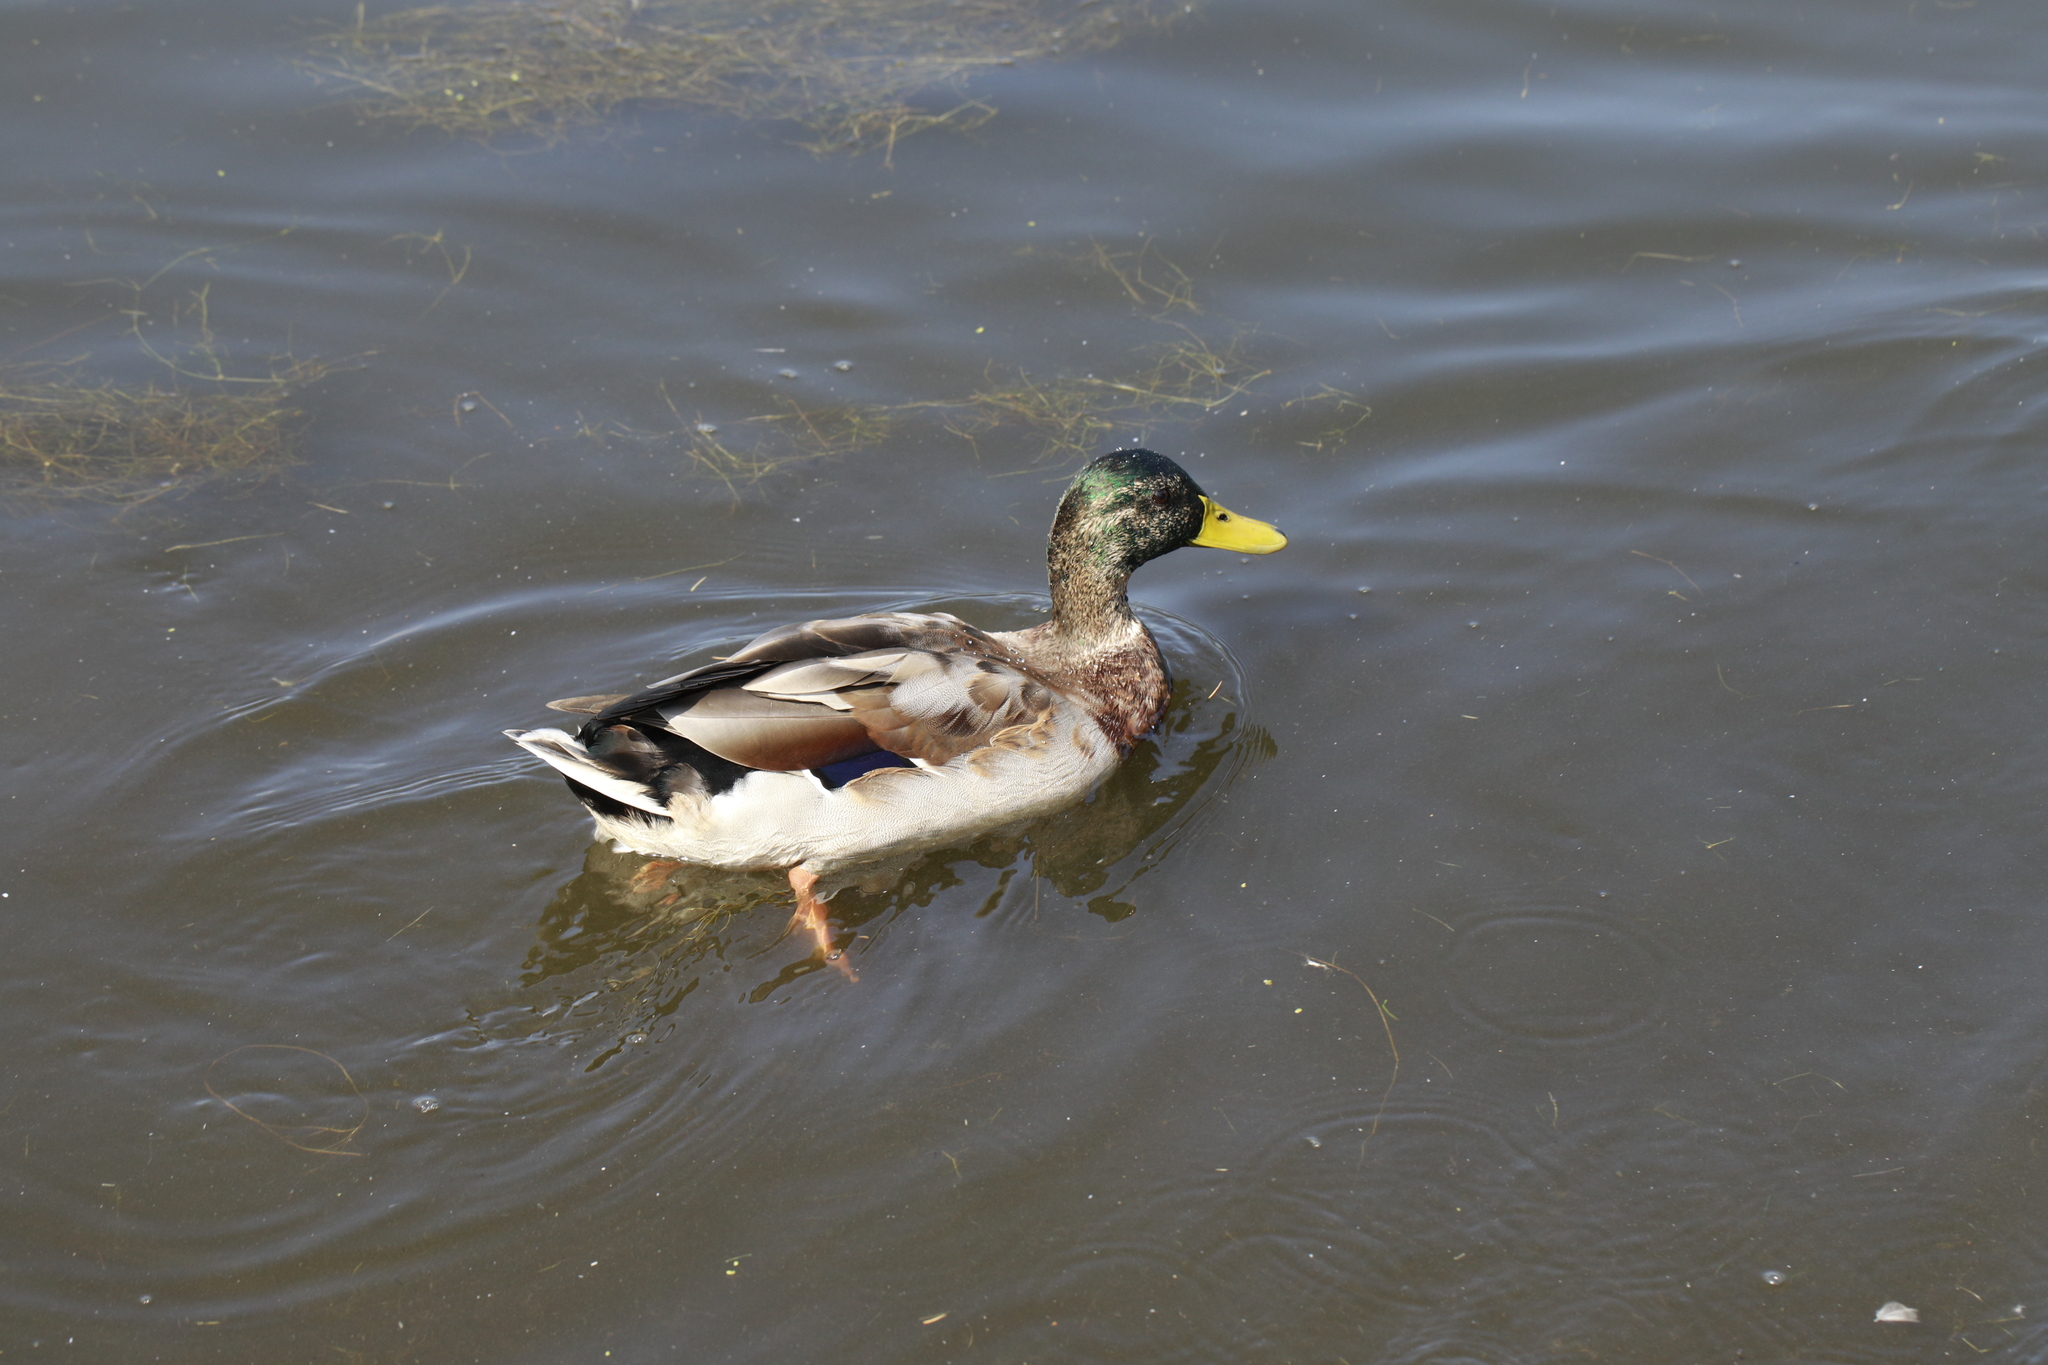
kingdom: Animalia
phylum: Chordata
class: Aves
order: Anseriformes
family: Anatidae
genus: Anas
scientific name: Anas platyrhynchos
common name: Mallard
